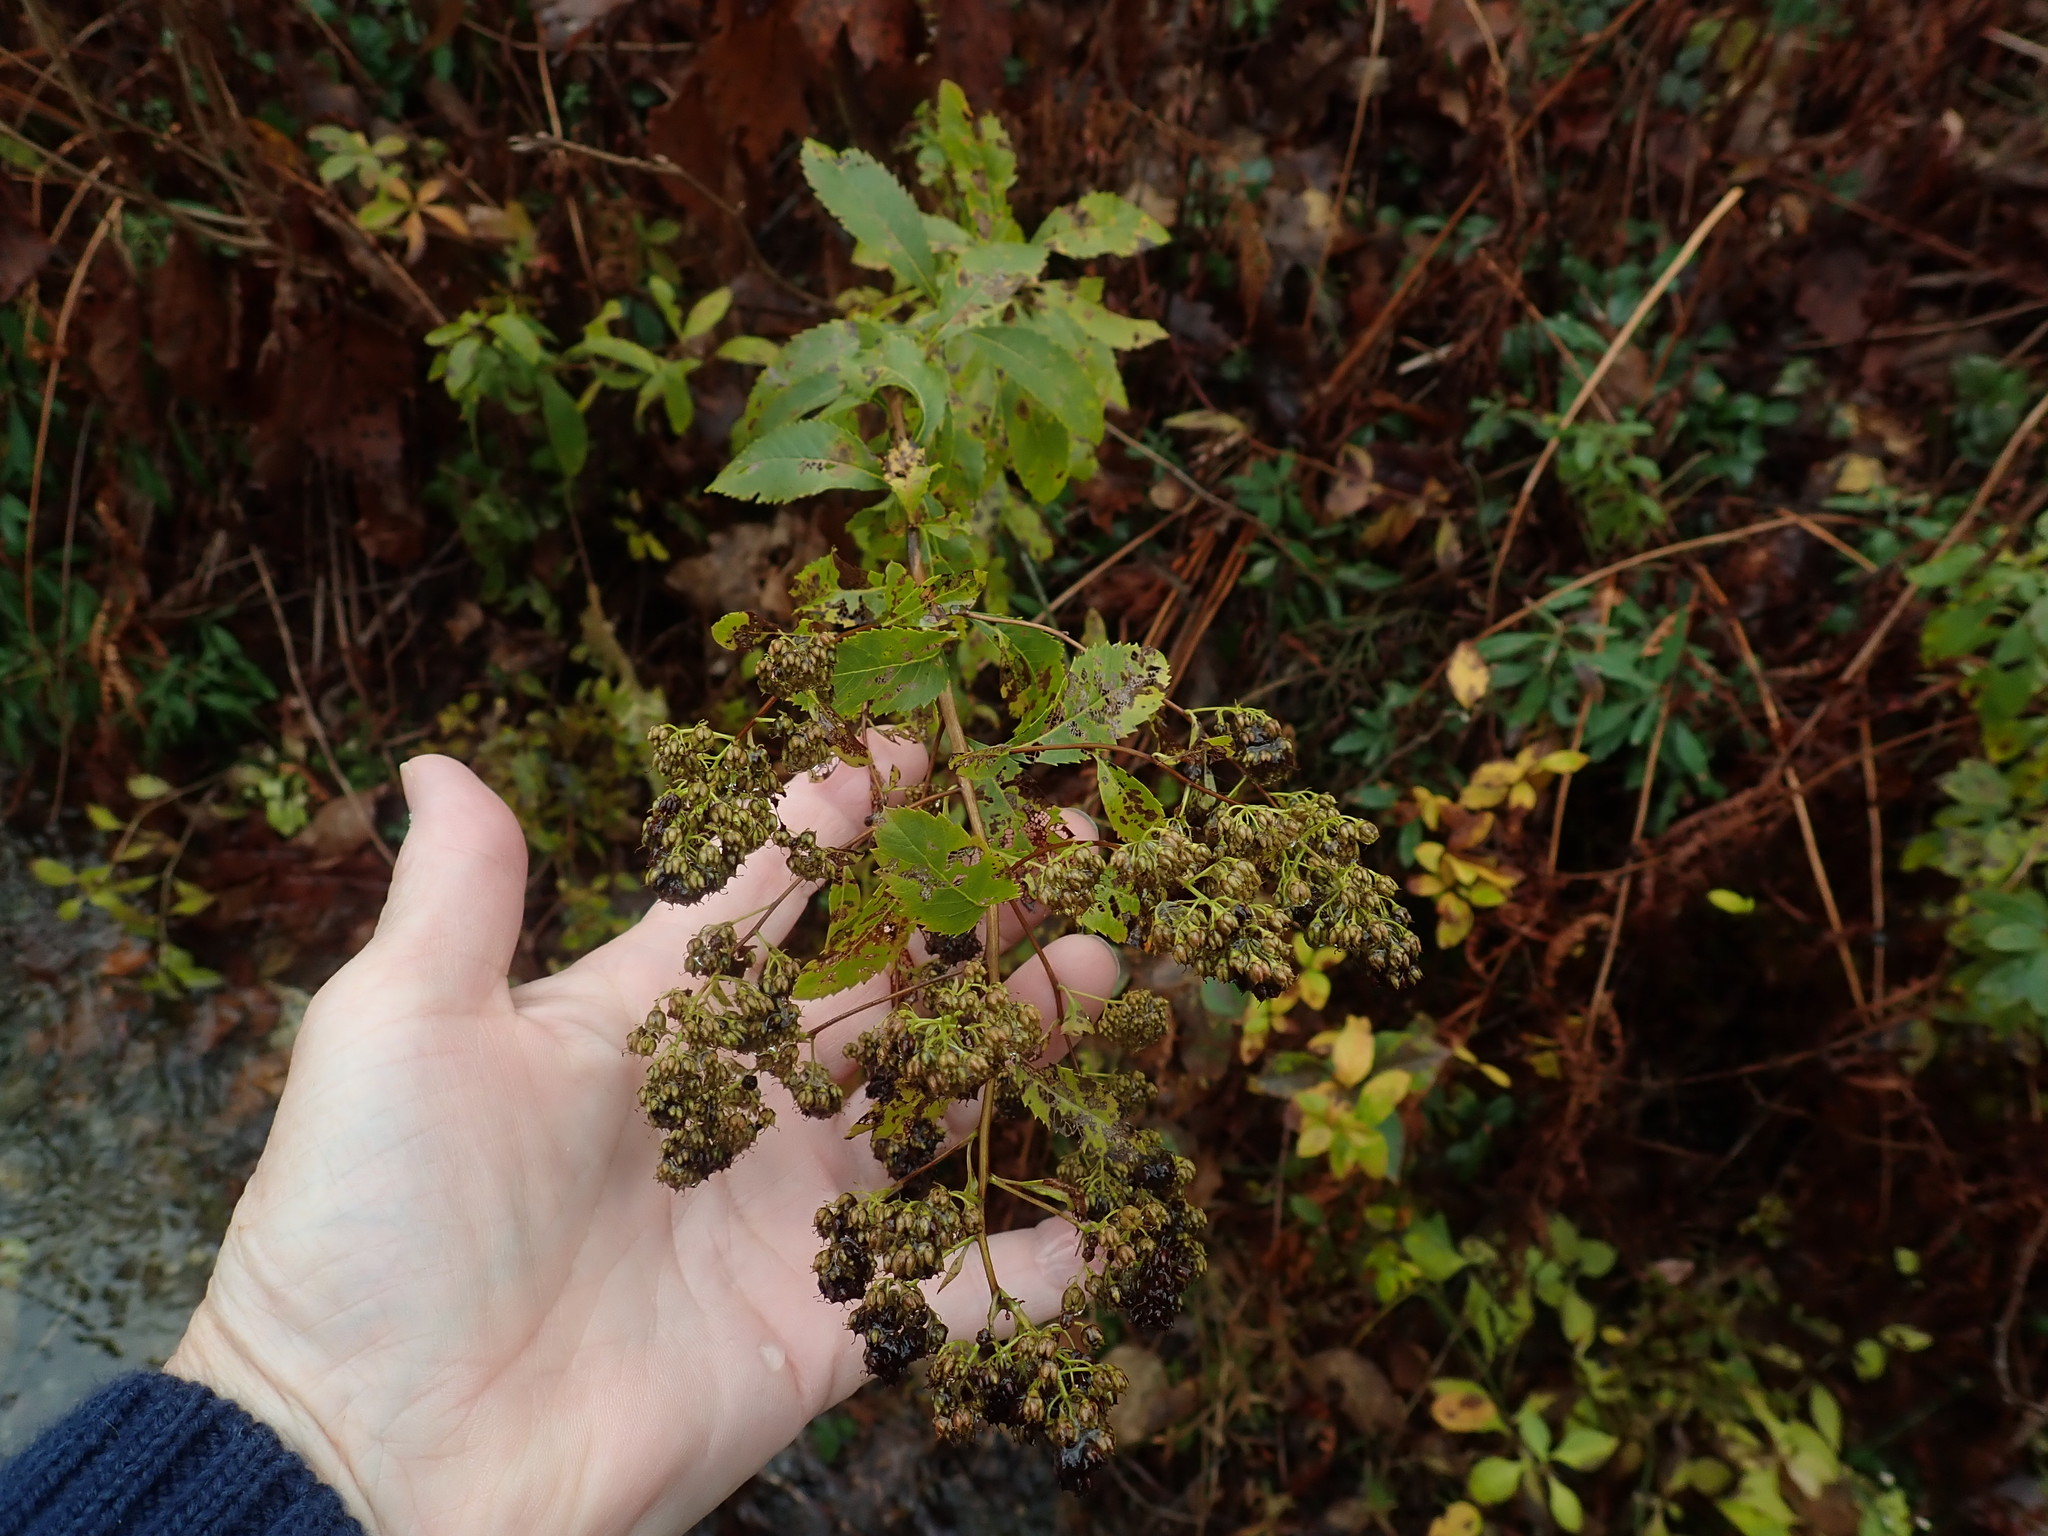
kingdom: Plantae
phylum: Tracheophyta
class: Magnoliopsida
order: Rosales
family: Rosaceae
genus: Spiraea
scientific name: Spiraea alba
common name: Pale bridewort
